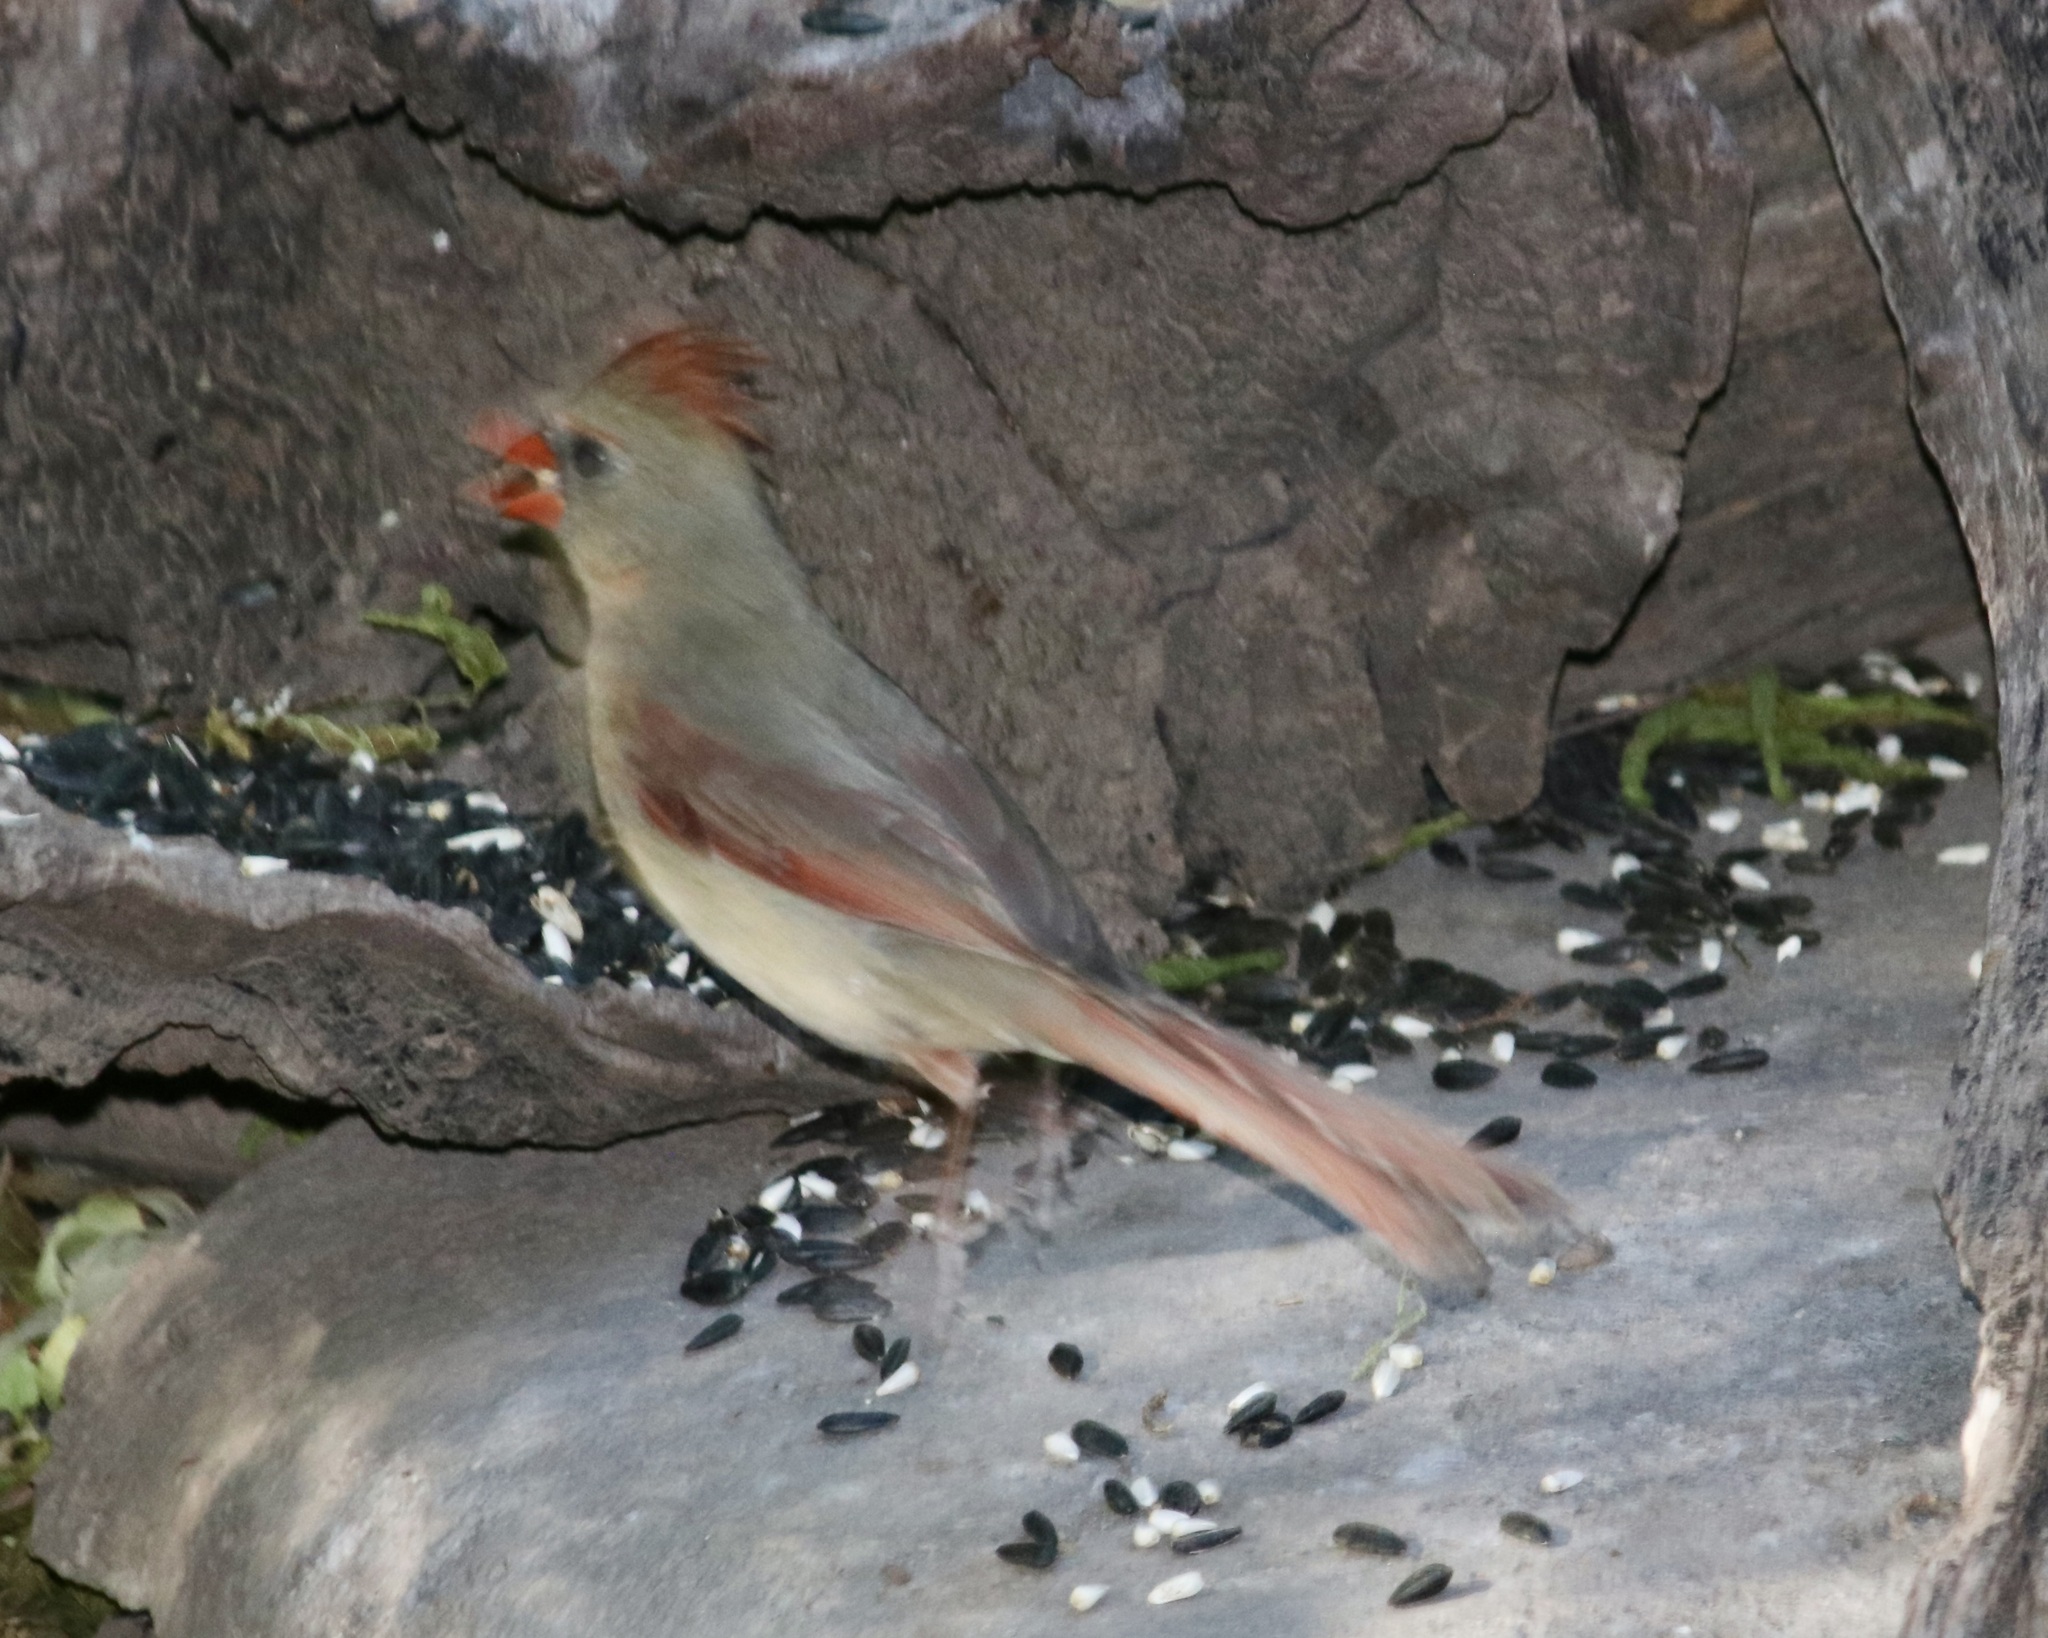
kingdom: Animalia
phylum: Chordata
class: Aves
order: Passeriformes
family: Cardinalidae
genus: Cardinalis
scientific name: Cardinalis cardinalis
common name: Northern cardinal
